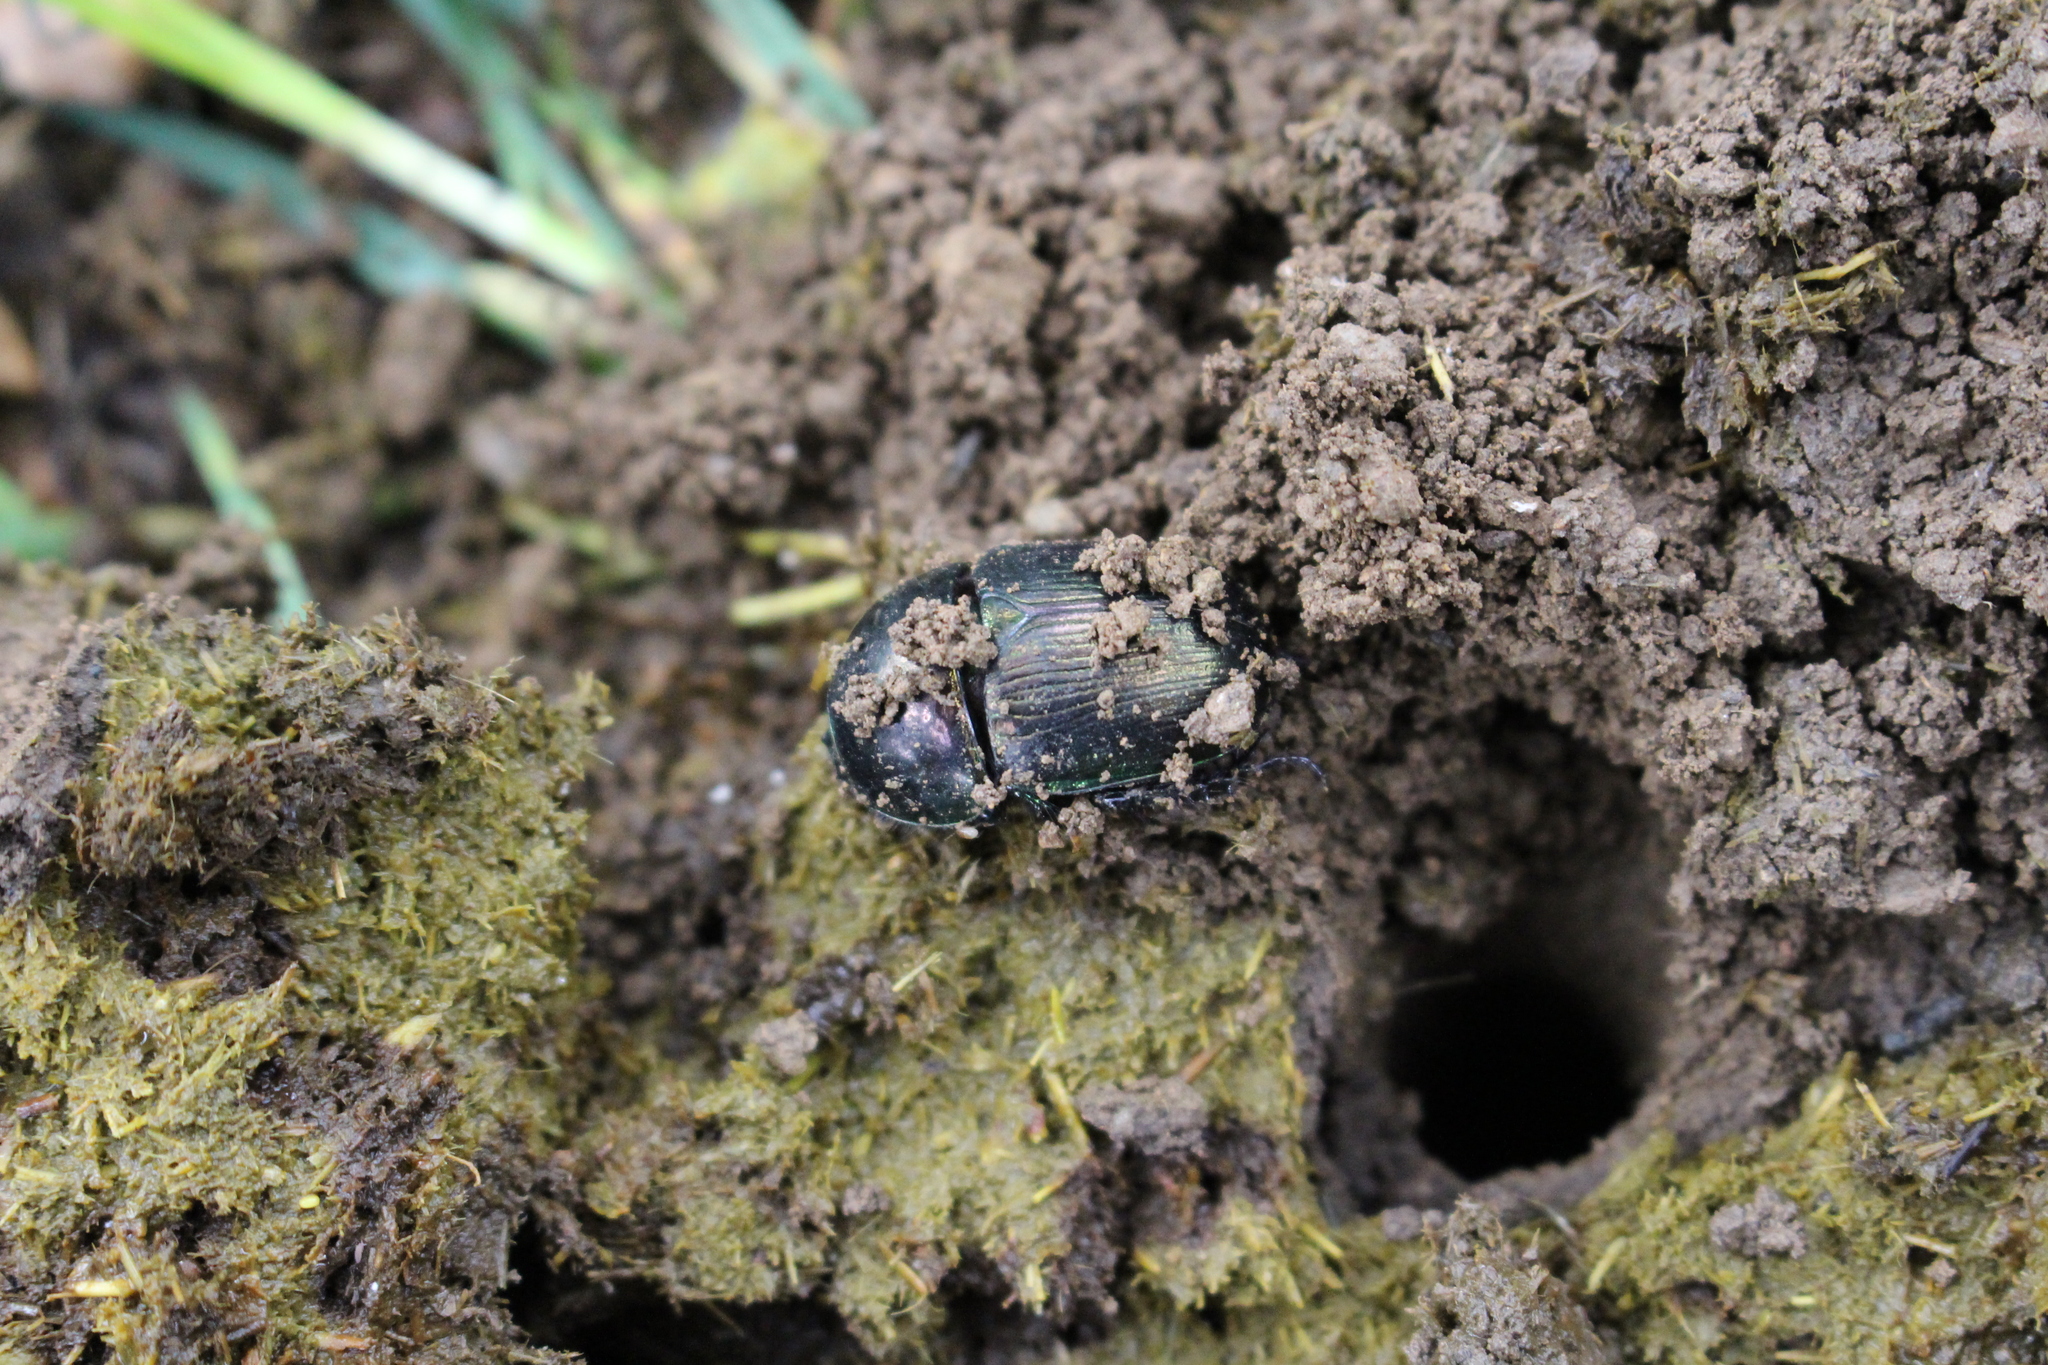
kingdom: Animalia
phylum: Arthropoda
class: Insecta
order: Coleoptera
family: Geotrupidae
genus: Geotrupes
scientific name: Geotrupes mutator
